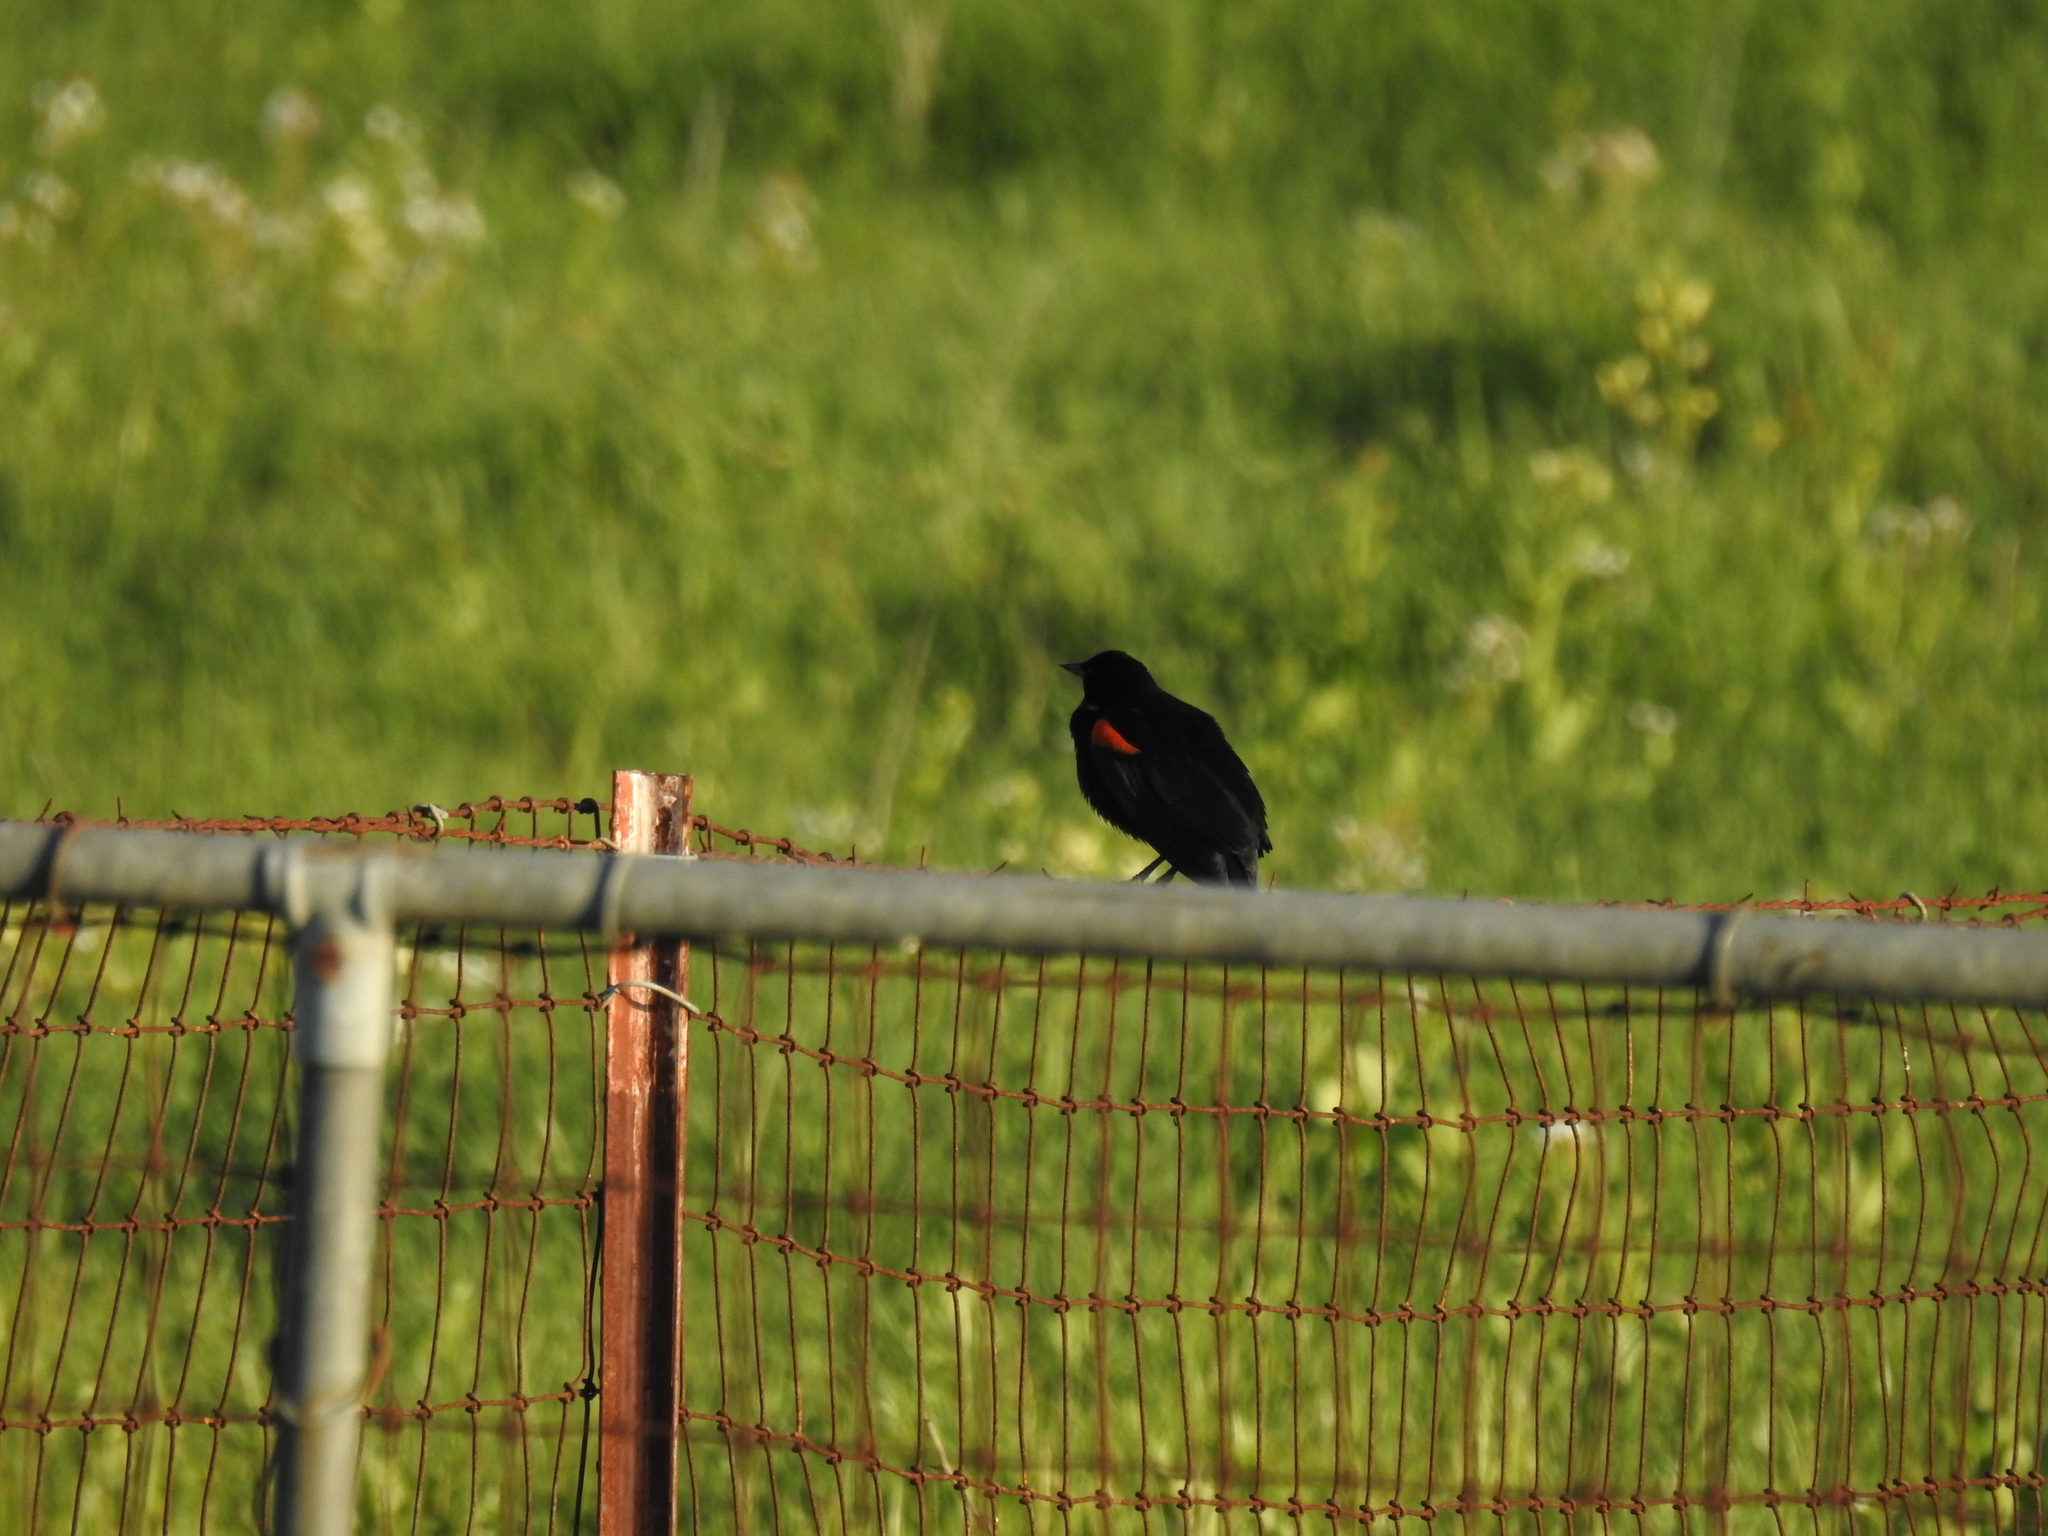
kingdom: Animalia
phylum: Chordata
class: Aves
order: Passeriformes
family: Icteridae
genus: Agelaius
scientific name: Agelaius phoeniceus
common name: Red-winged blackbird
